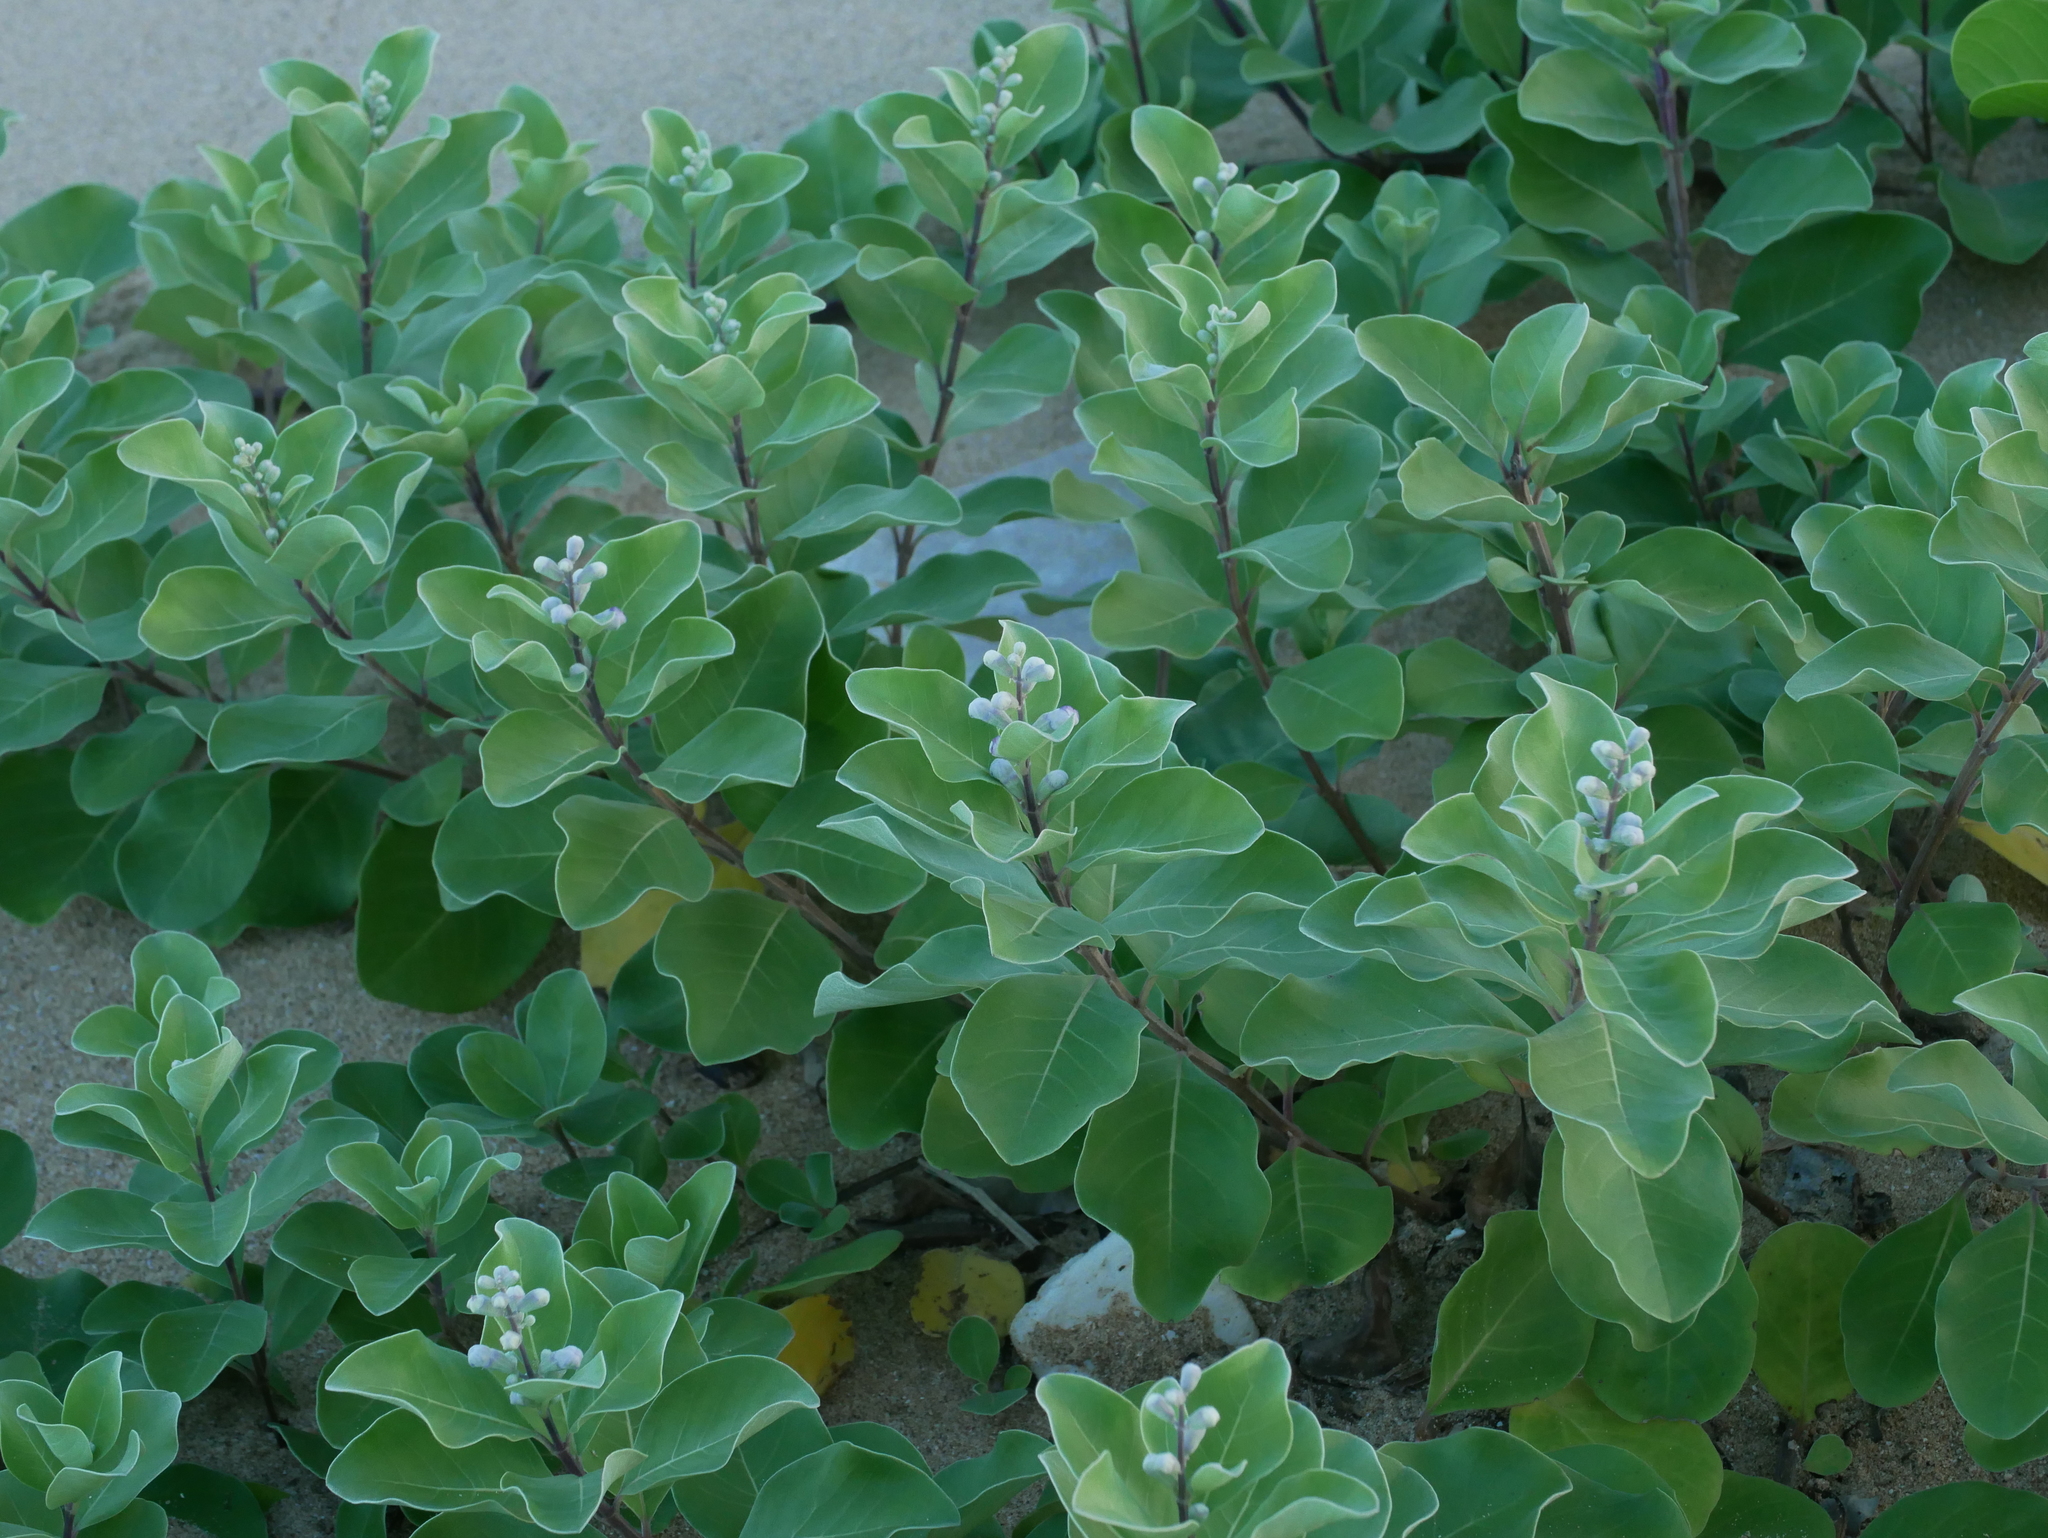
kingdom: Plantae
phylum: Tracheophyta
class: Magnoliopsida
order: Lamiales
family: Lamiaceae
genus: Vitex
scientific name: Vitex rotundifolia
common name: Beach vitex
